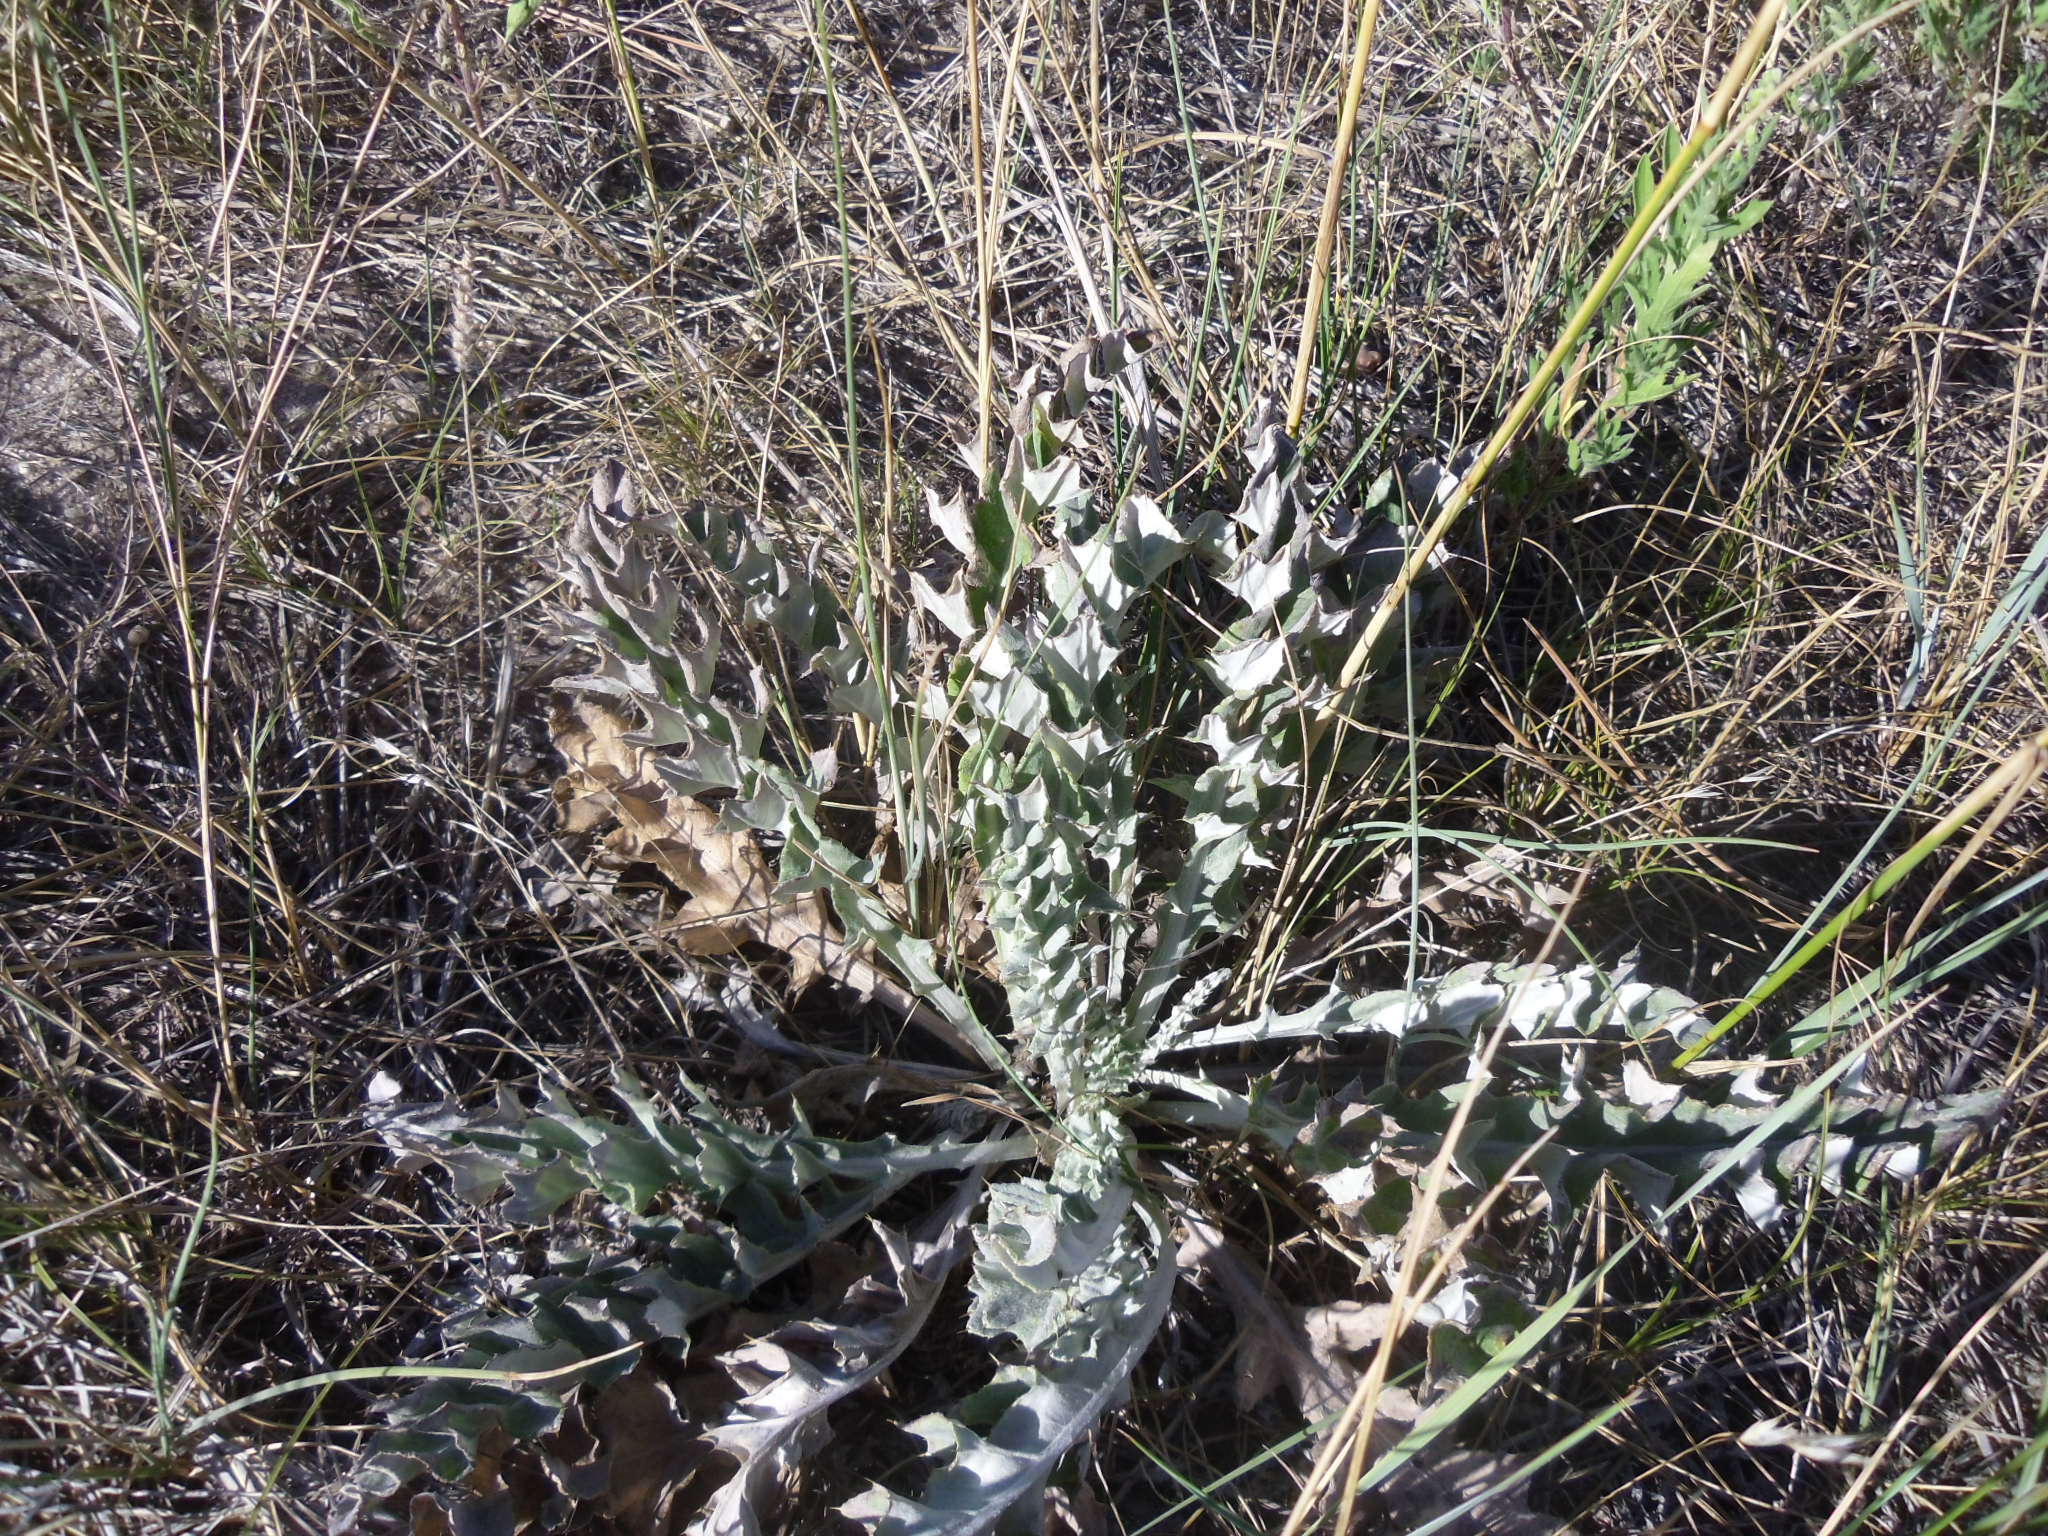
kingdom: Plantae
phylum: Tracheophyta
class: Magnoliopsida
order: Asterales
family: Asteraceae
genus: Cirsium
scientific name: Cirsium undulatum
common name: Pasture thistle
